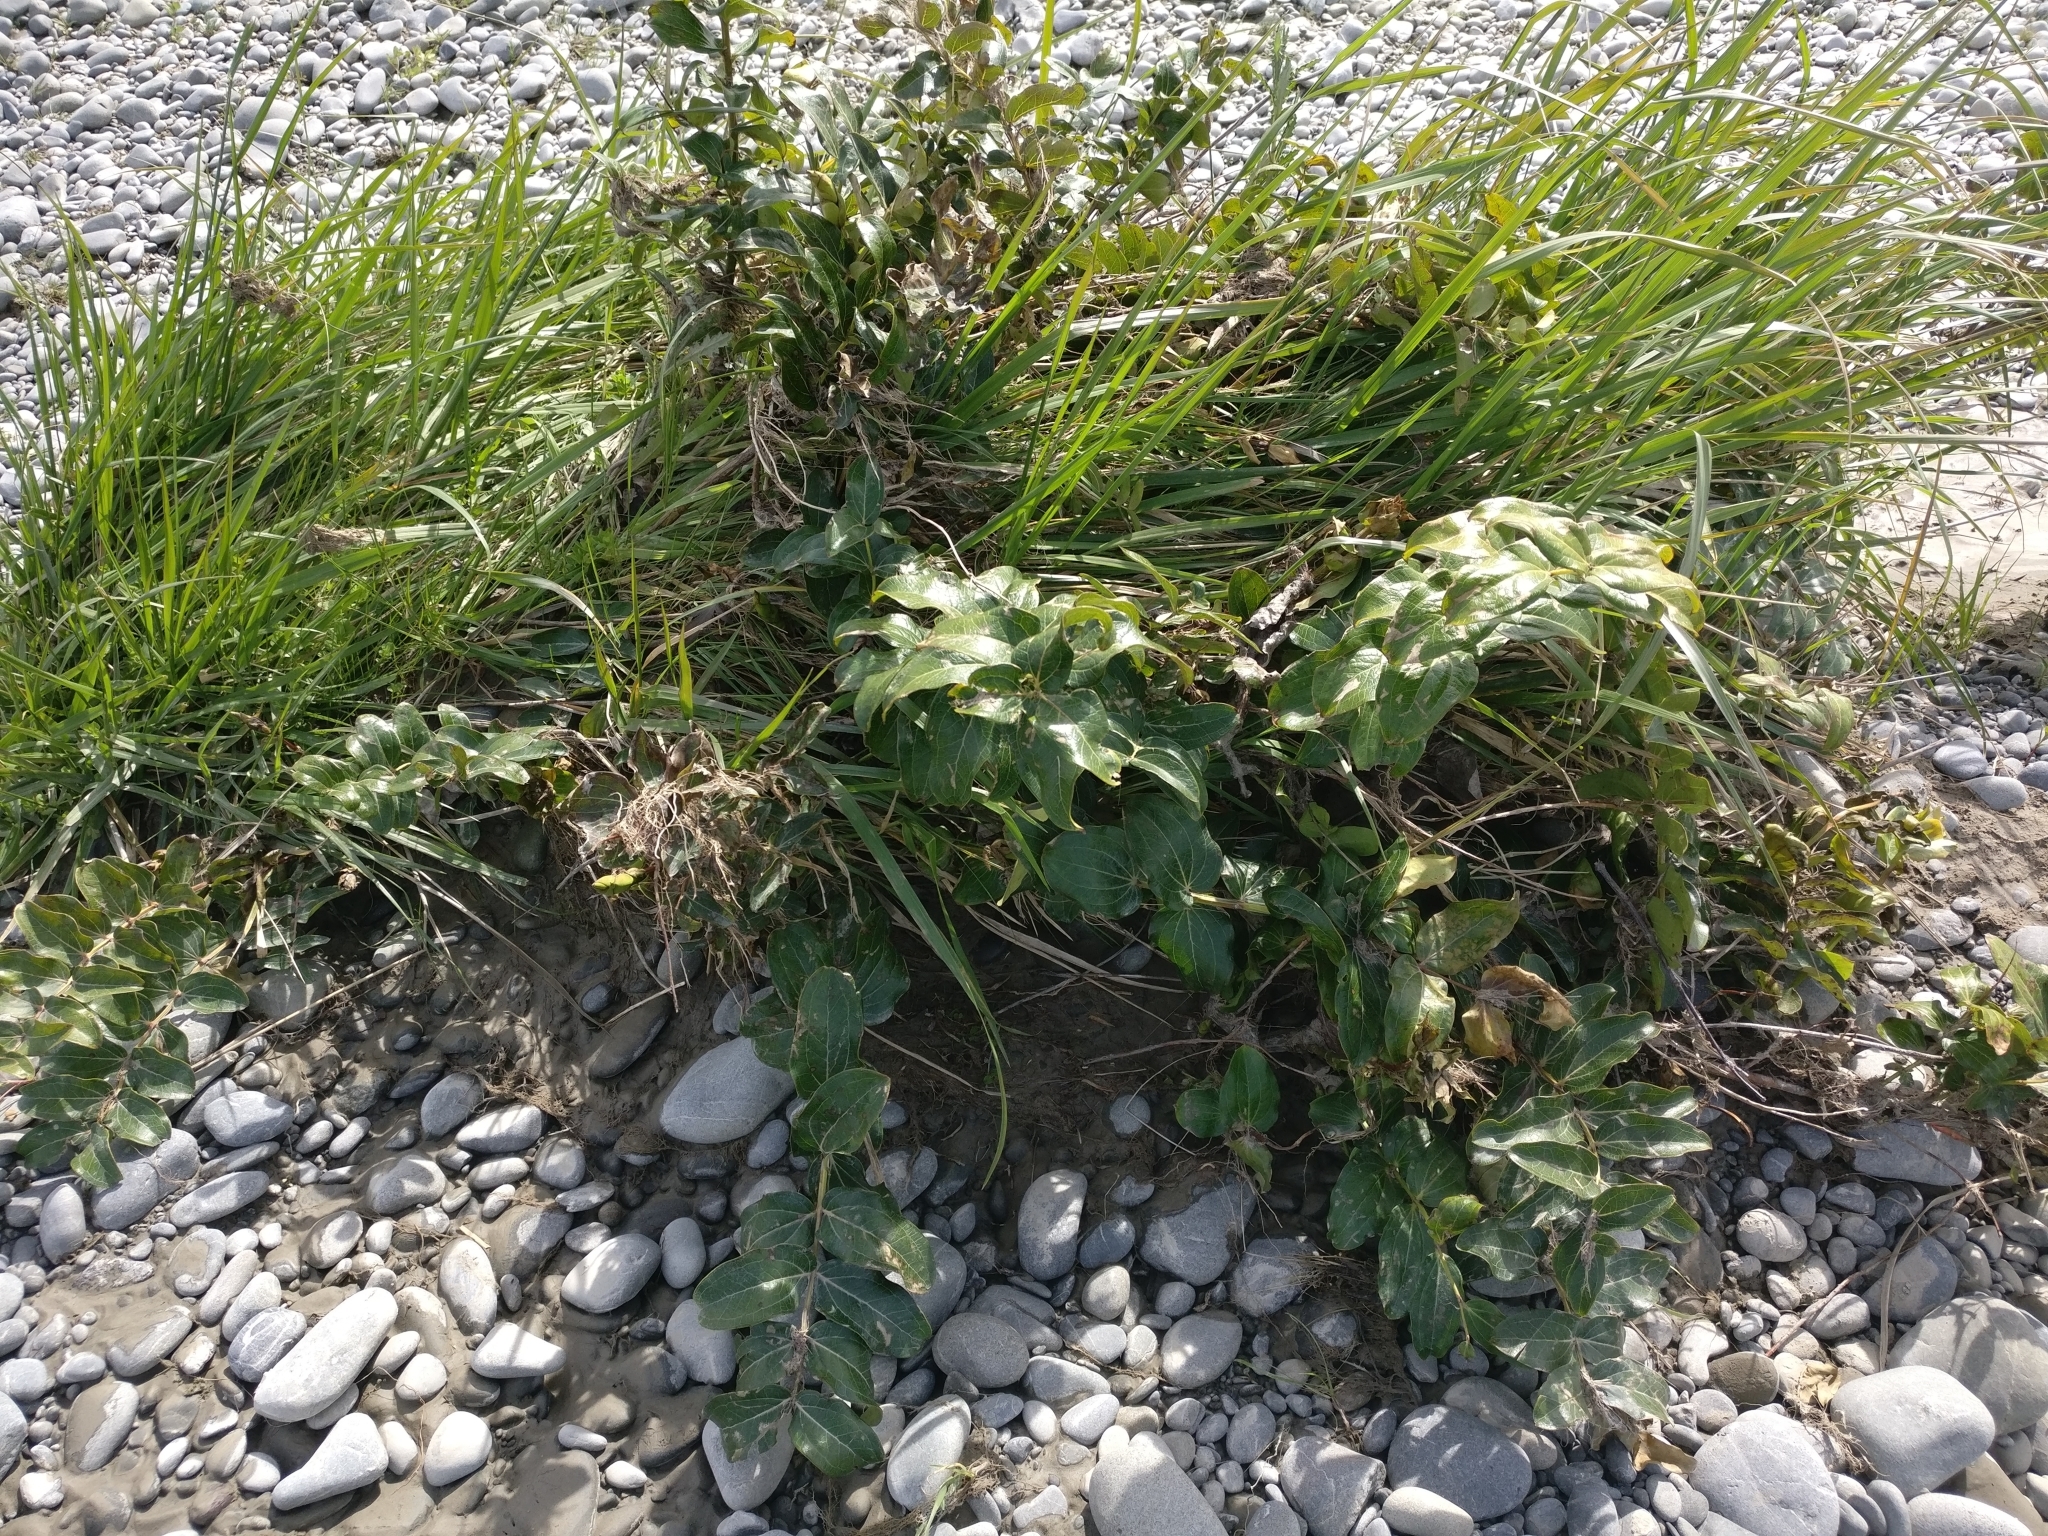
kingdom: Plantae
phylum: Tracheophyta
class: Magnoliopsida
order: Cucurbitales
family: Coriariaceae
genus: Coriaria
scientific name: Coriaria arborea
